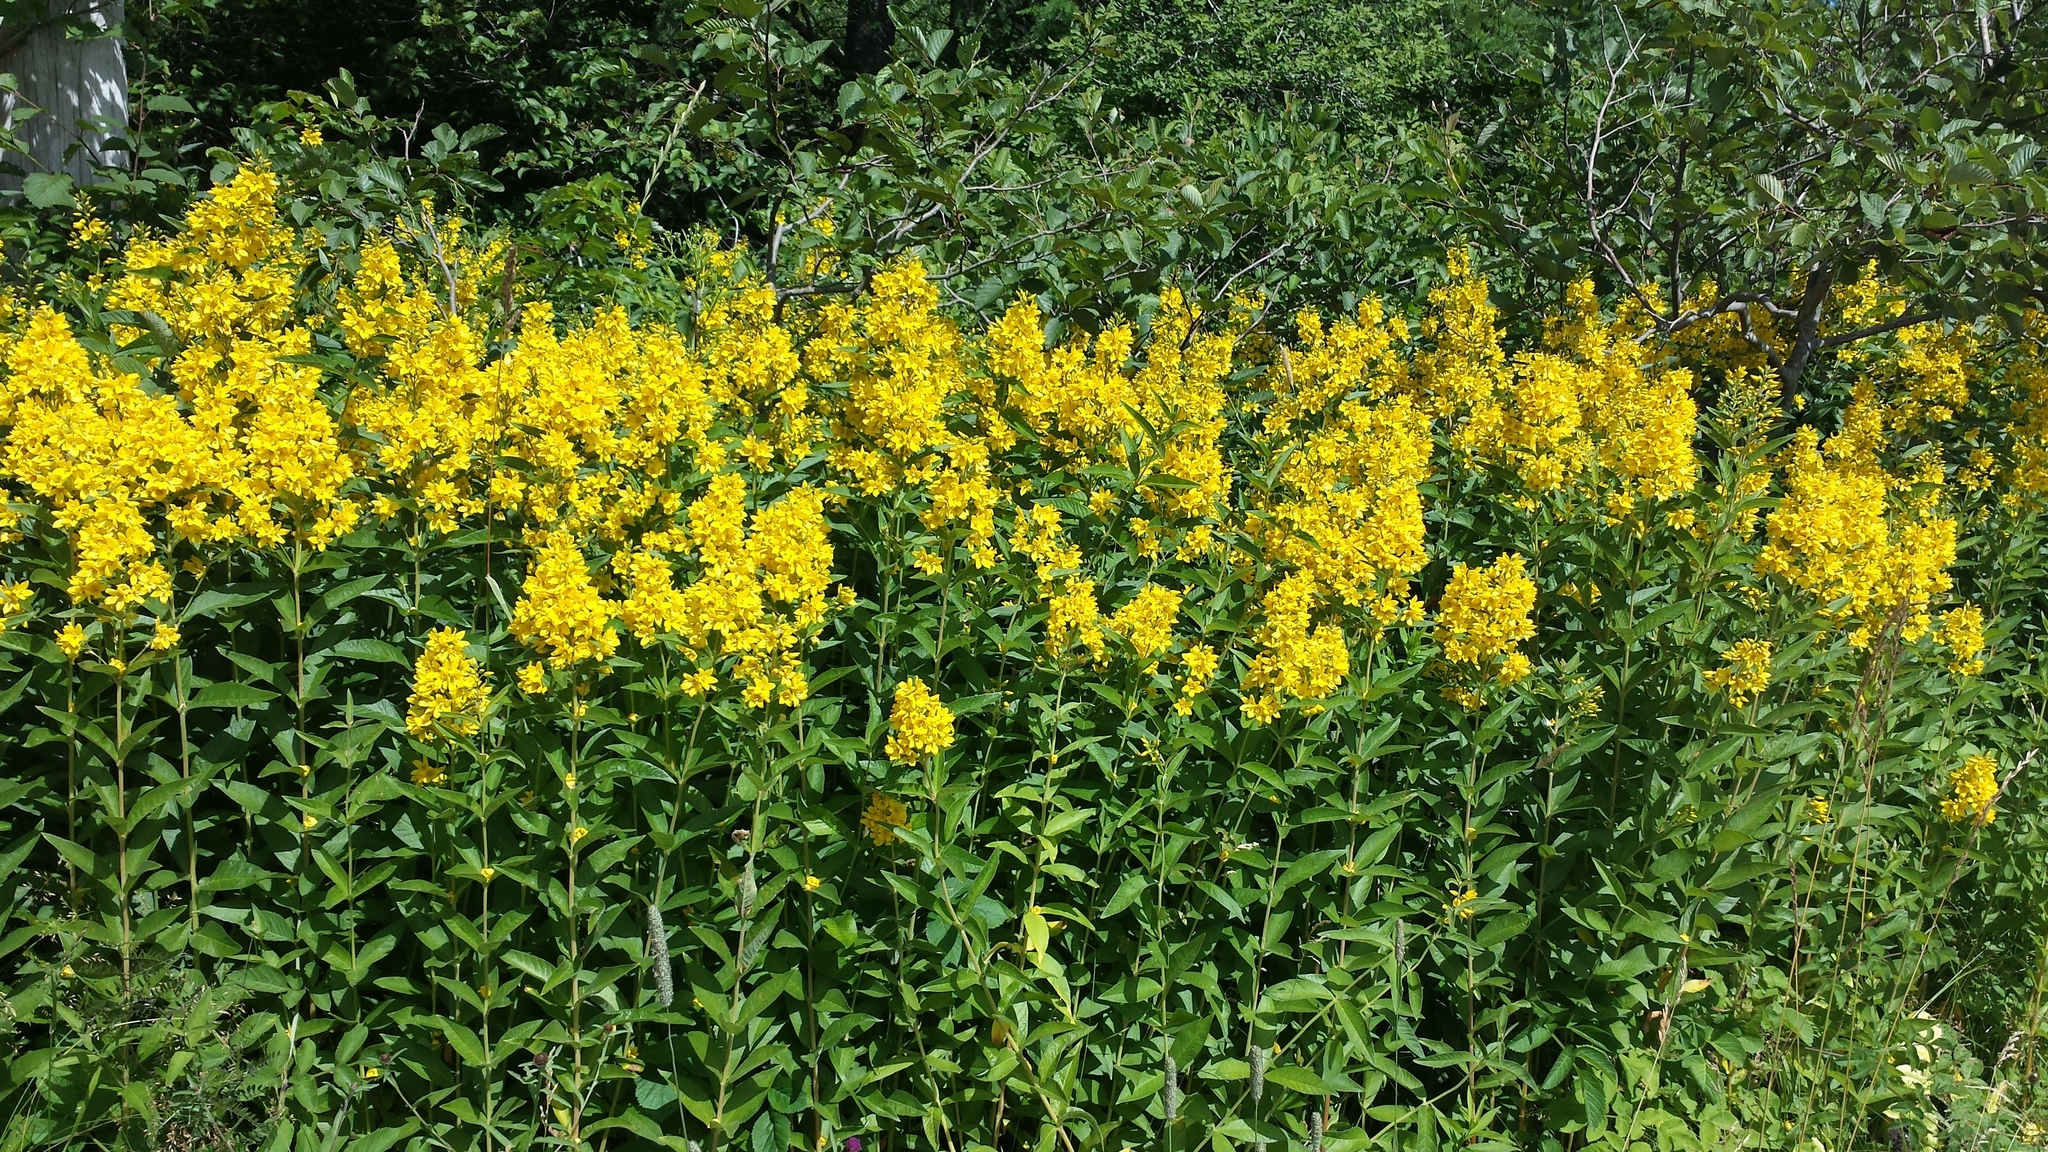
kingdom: Plantae
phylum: Tracheophyta
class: Magnoliopsida
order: Ericales
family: Primulaceae
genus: Lysimachia
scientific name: Lysimachia vulgaris
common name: Yellow loosestrife
